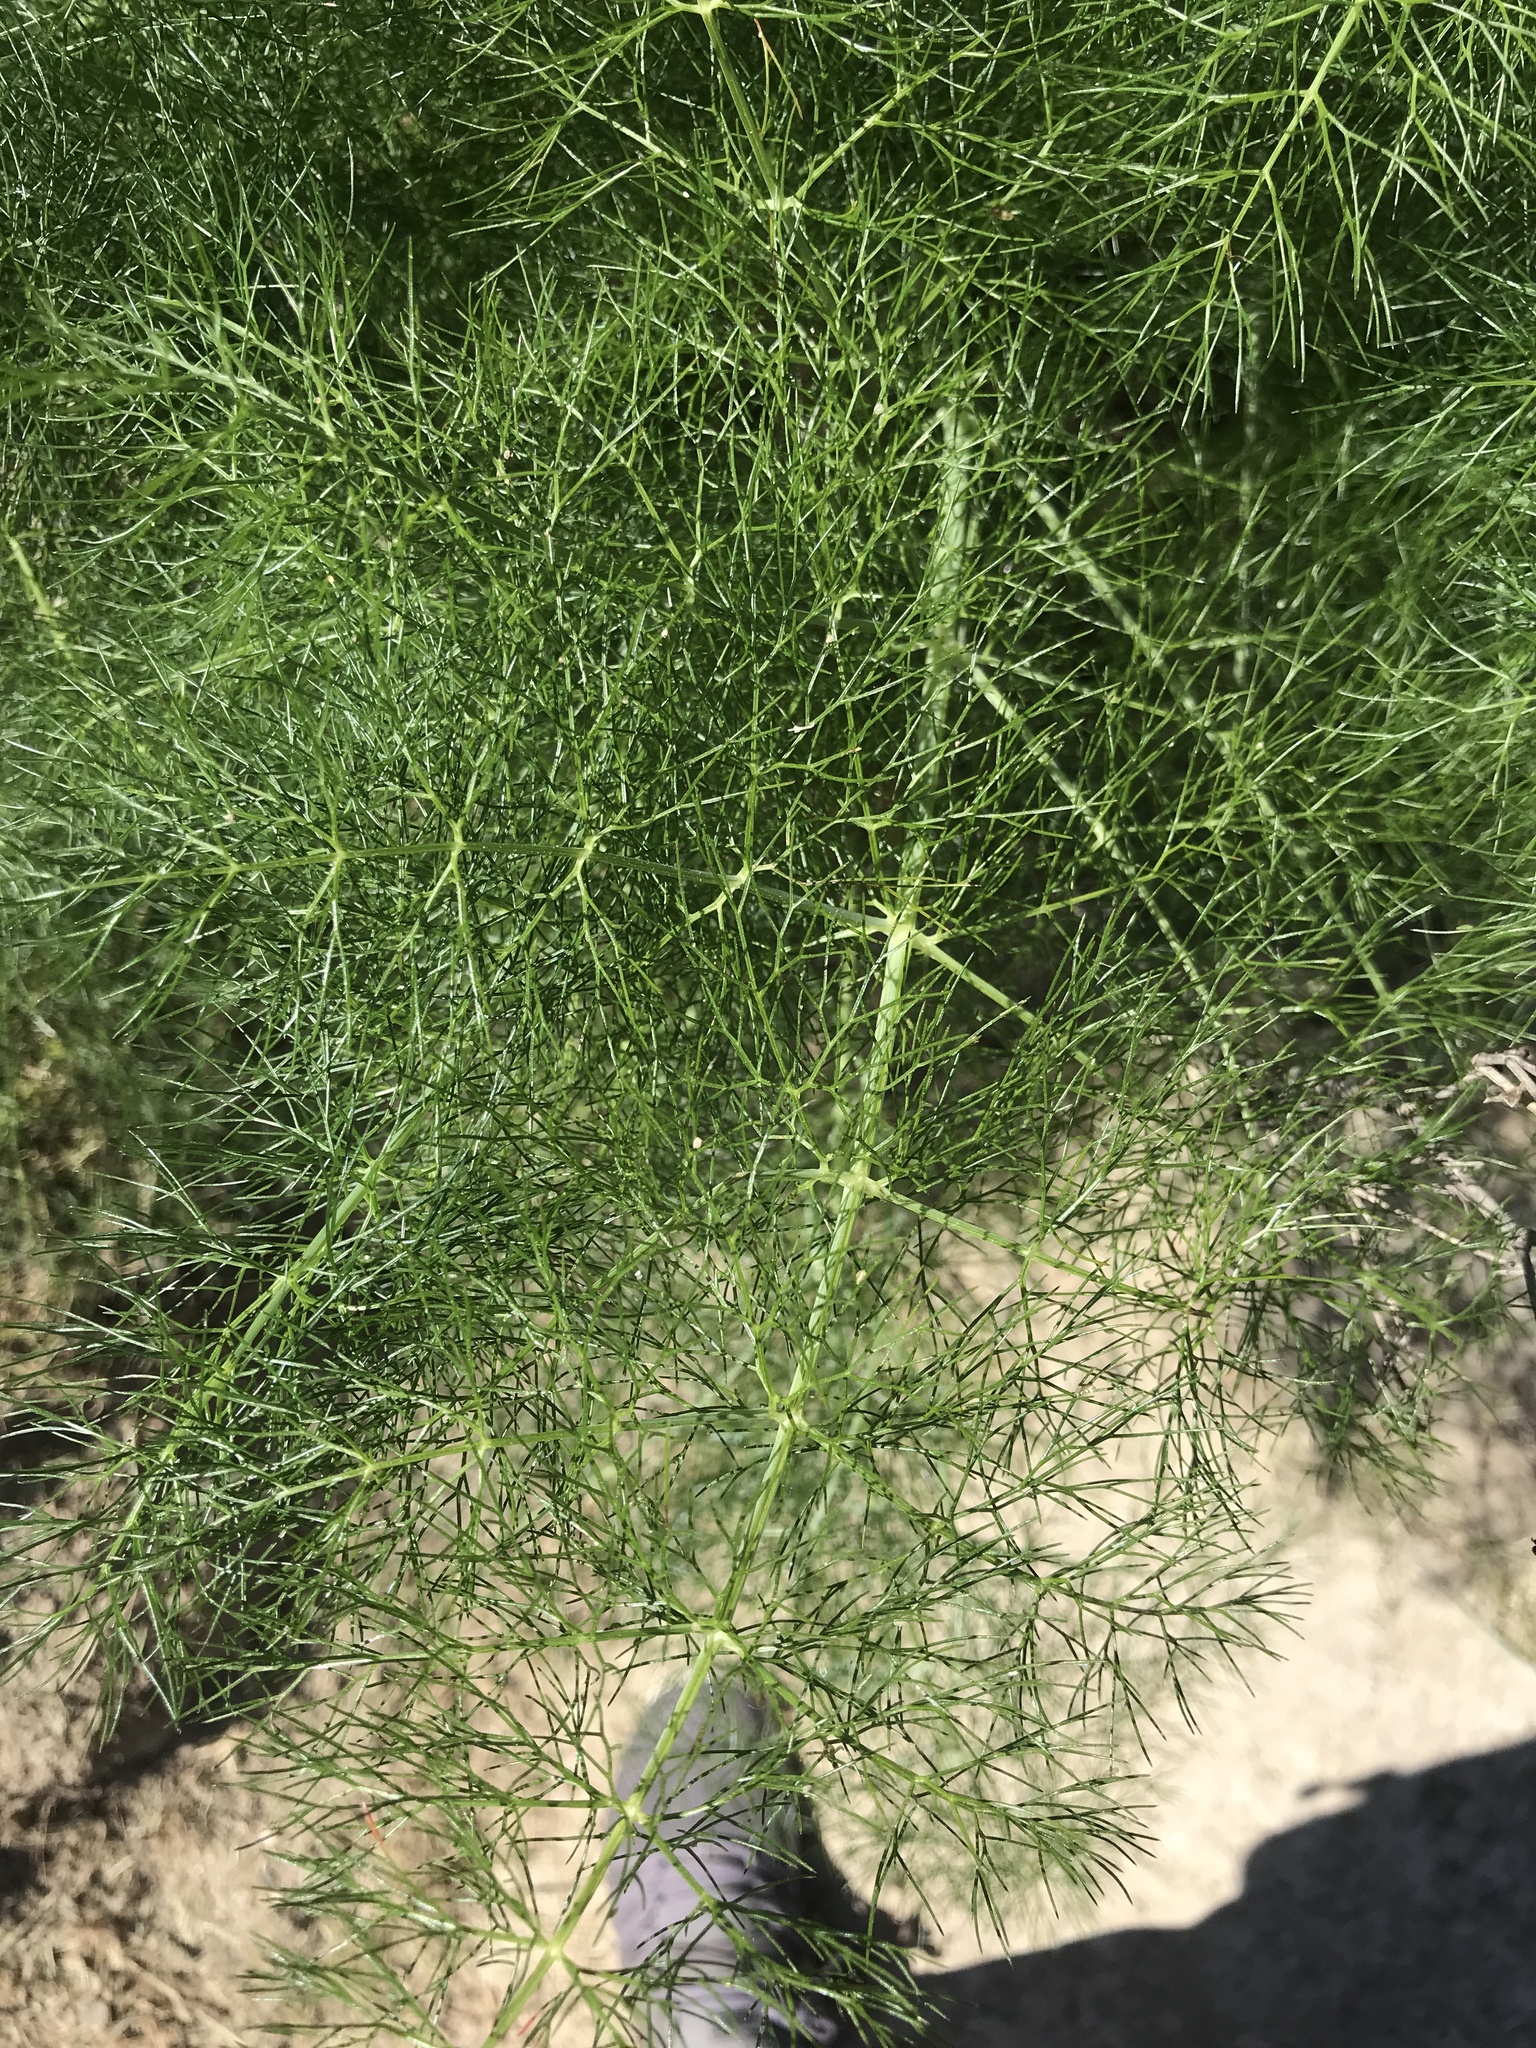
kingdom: Plantae
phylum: Tracheophyta
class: Magnoliopsida
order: Apiales
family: Apiaceae
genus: Foeniculum
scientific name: Foeniculum vulgare
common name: Fennel
